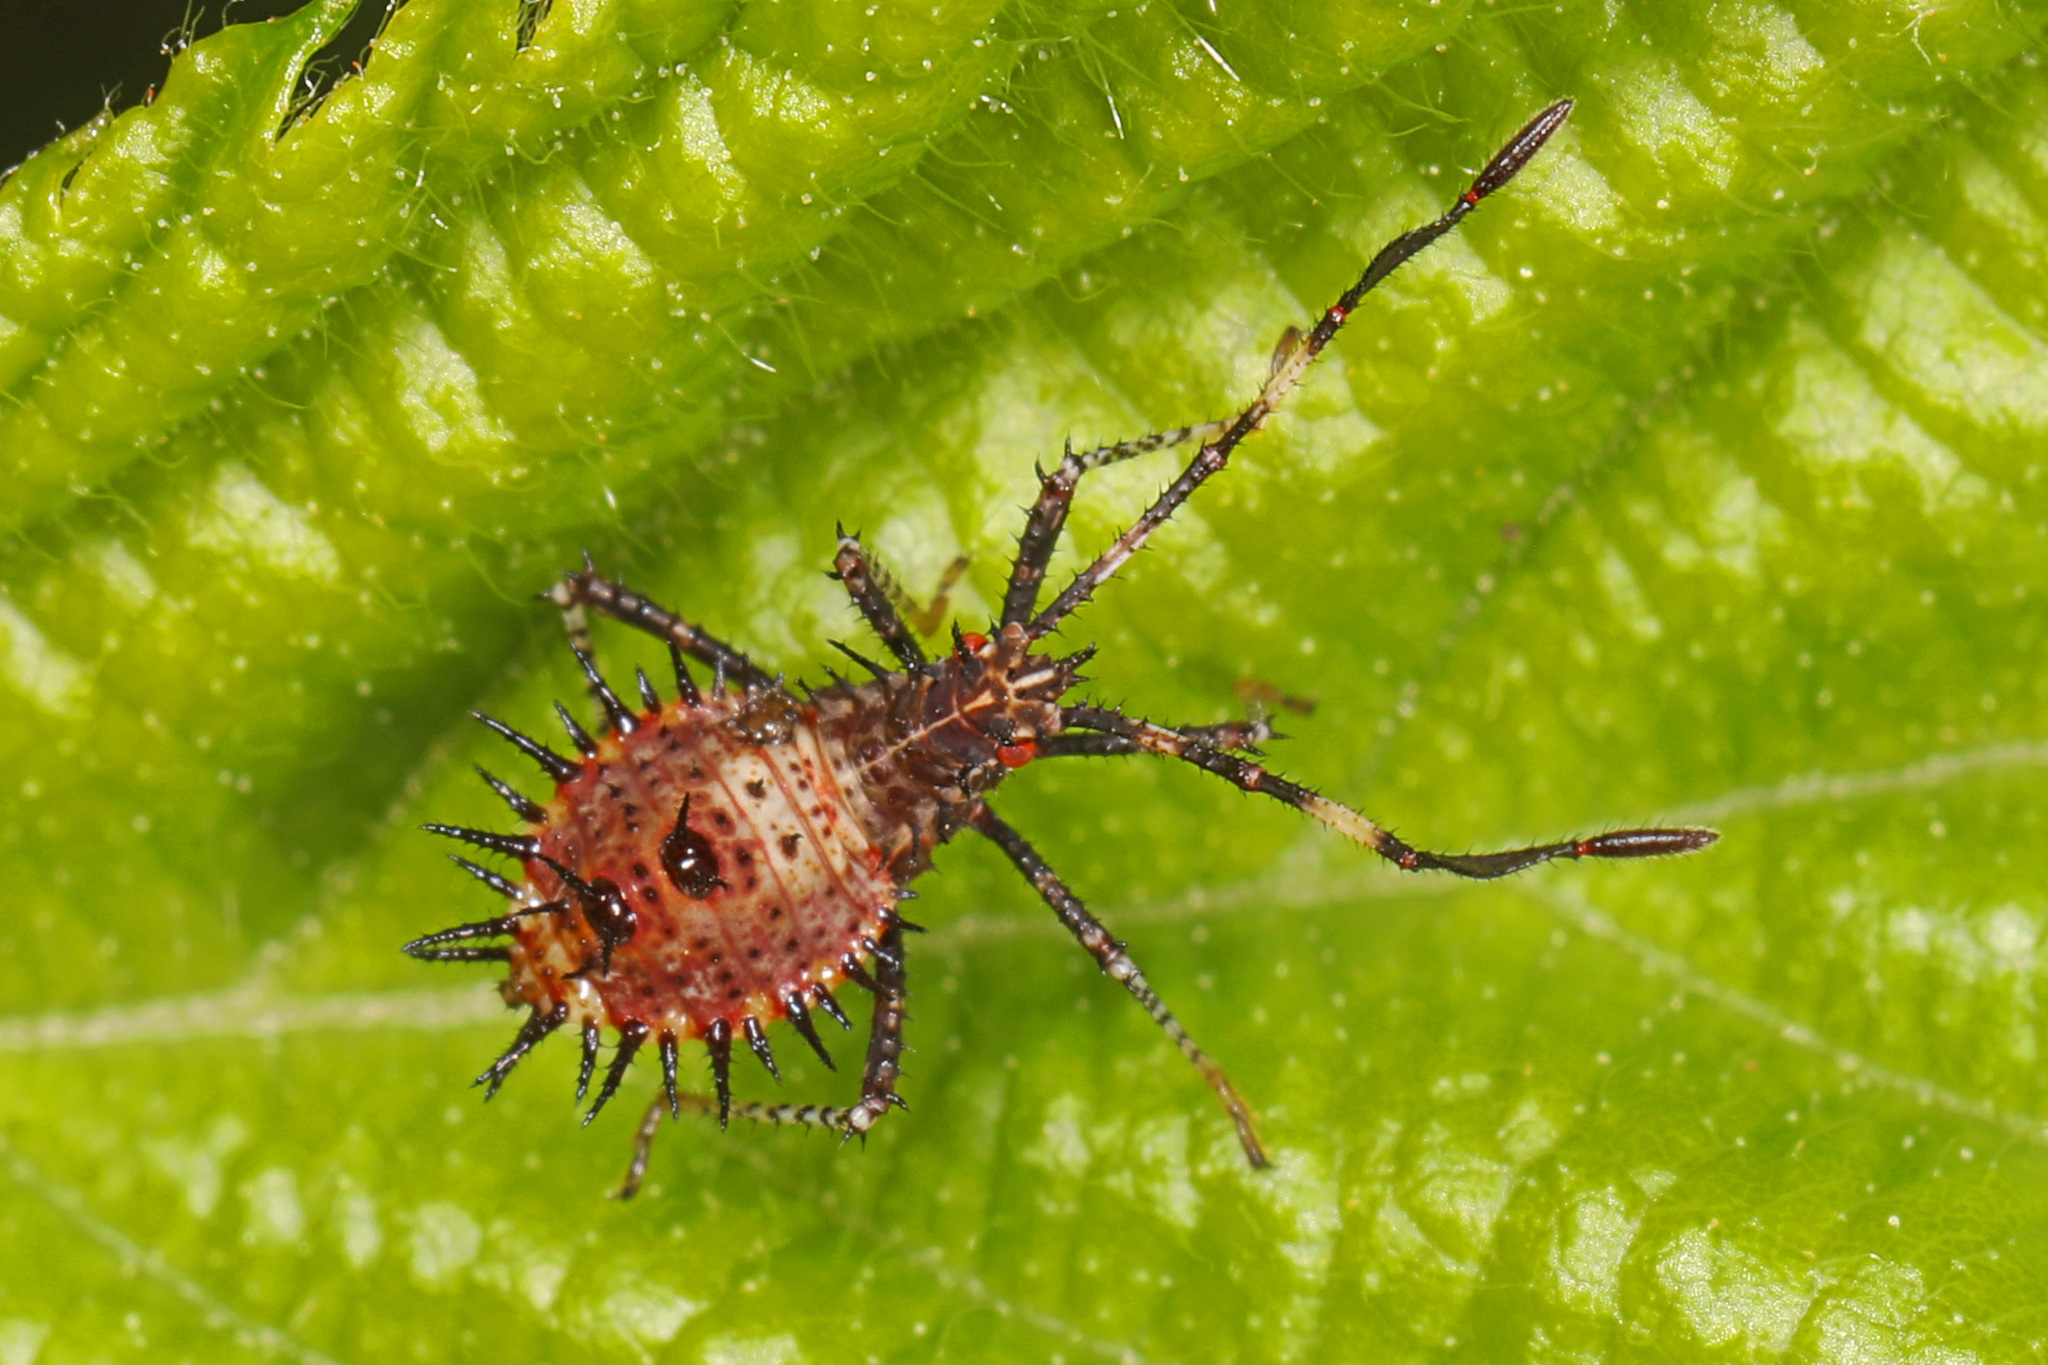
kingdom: Animalia
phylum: Arthropoda
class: Insecta
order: Hemiptera
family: Coreidae
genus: Euthochtha
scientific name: Euthochtha galeator
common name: Helmeted squash bug
